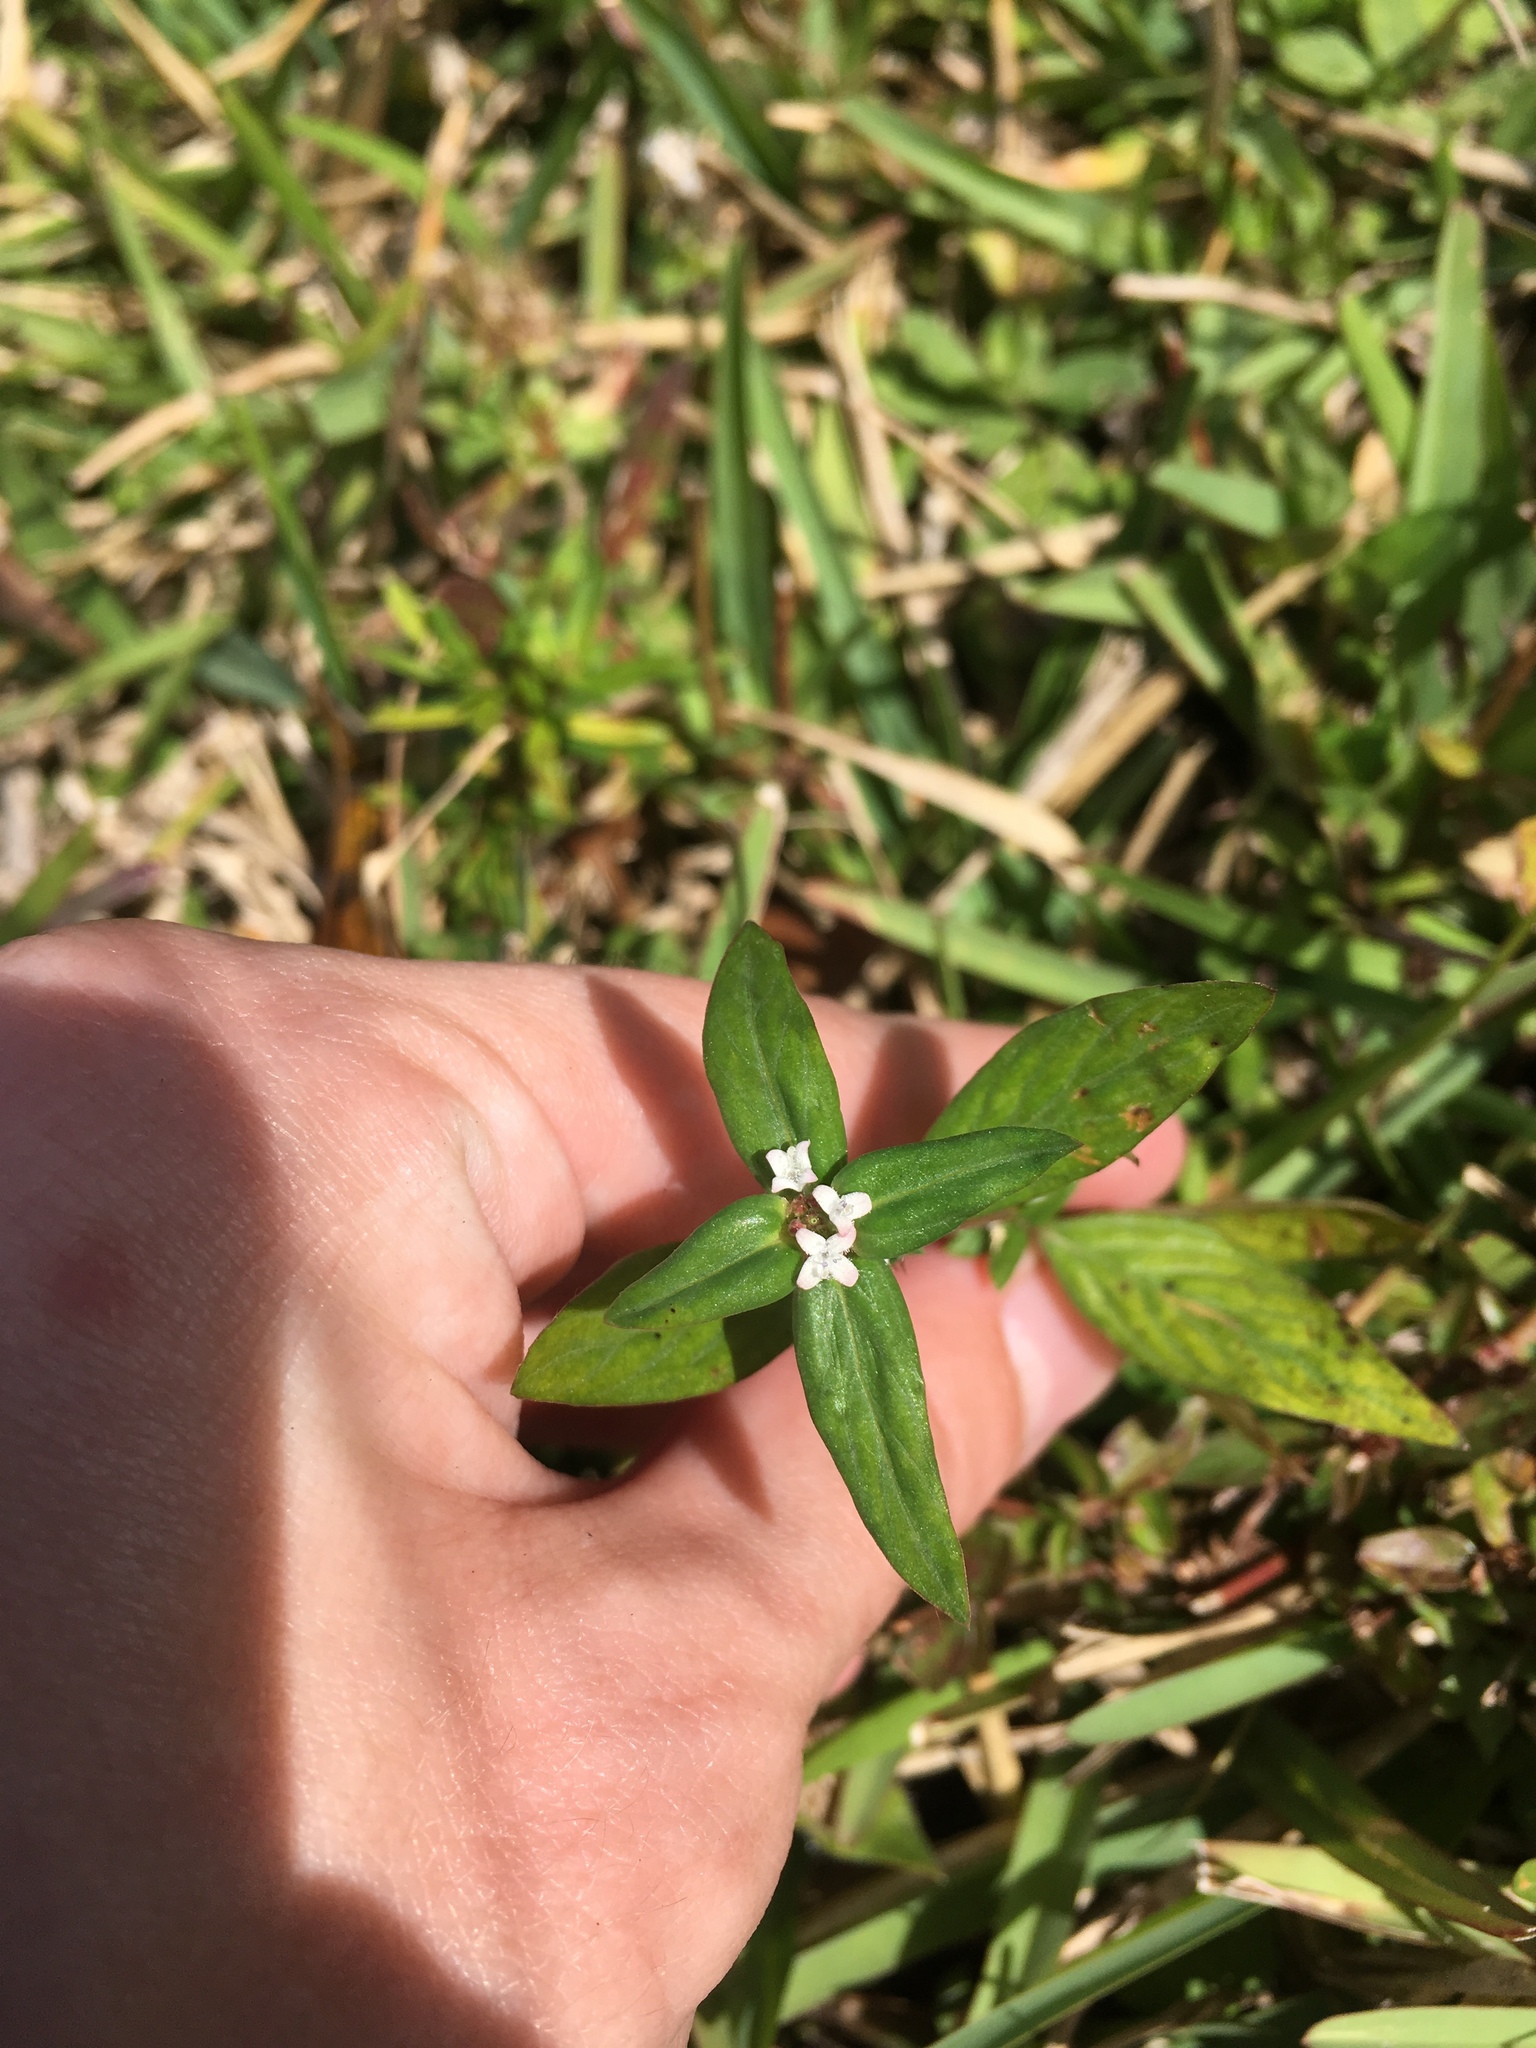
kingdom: Plantae
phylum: Tracheophyta
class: Magnoliopsida
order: Gentianales
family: Rubiaceae
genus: Spermacoce
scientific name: Spermacoce remota
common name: Woodland false buttonweed
